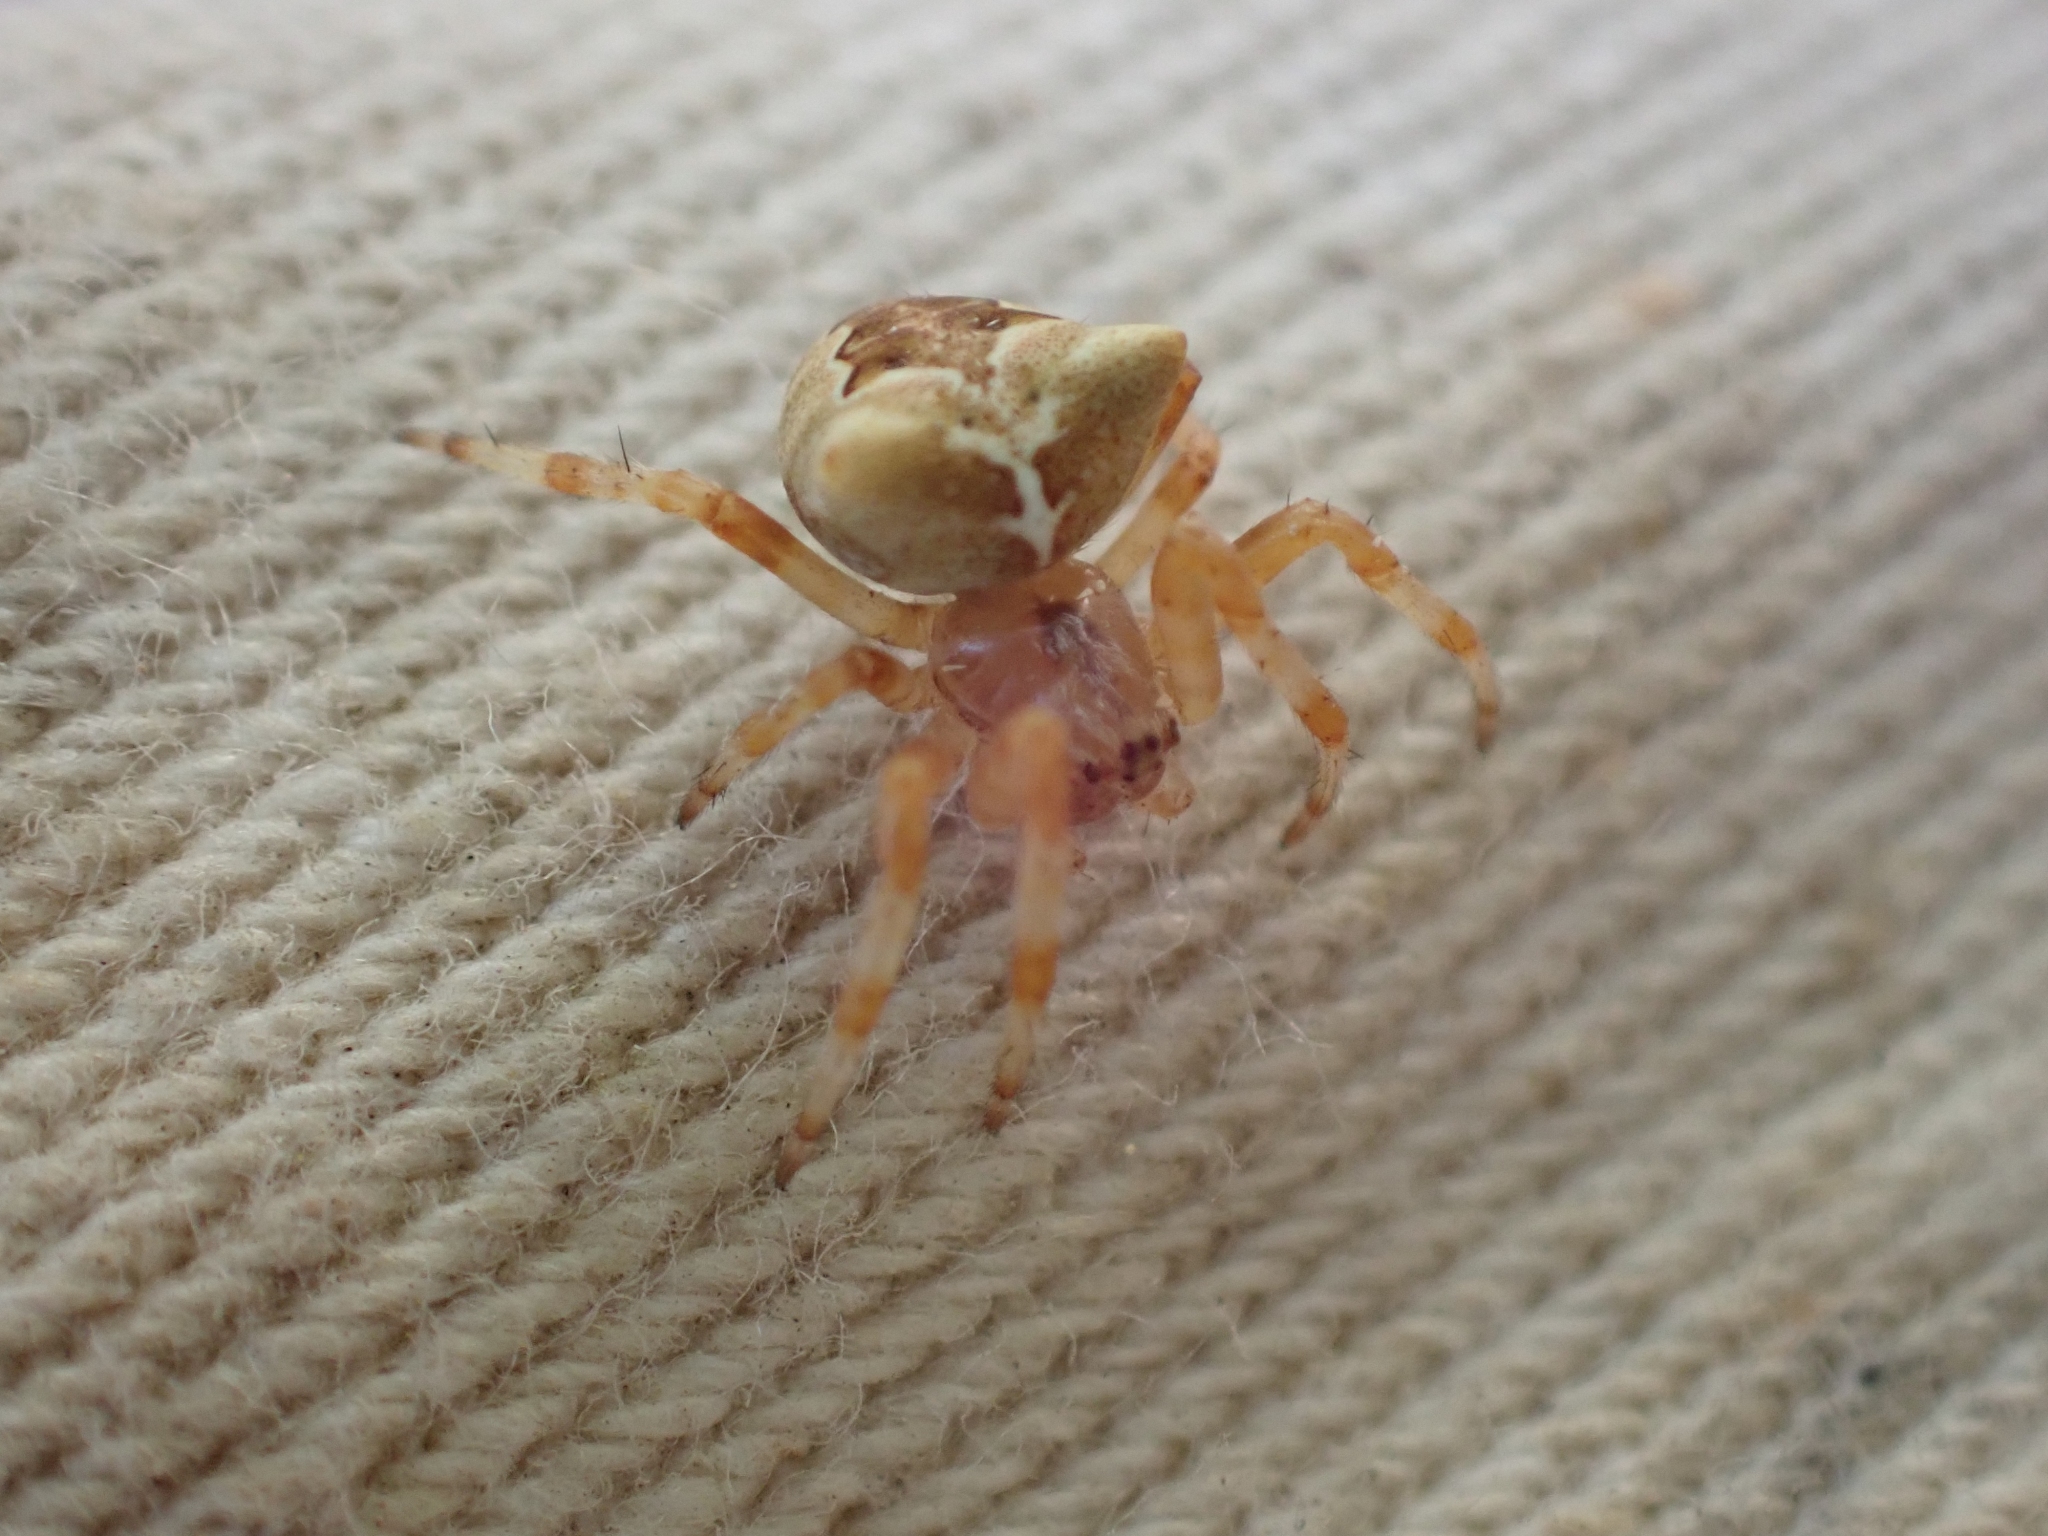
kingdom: Animalia
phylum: Arthropoda
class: Arachnida
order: Araneae
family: Araneidae
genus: Araneus
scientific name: Araneus gemmoides
